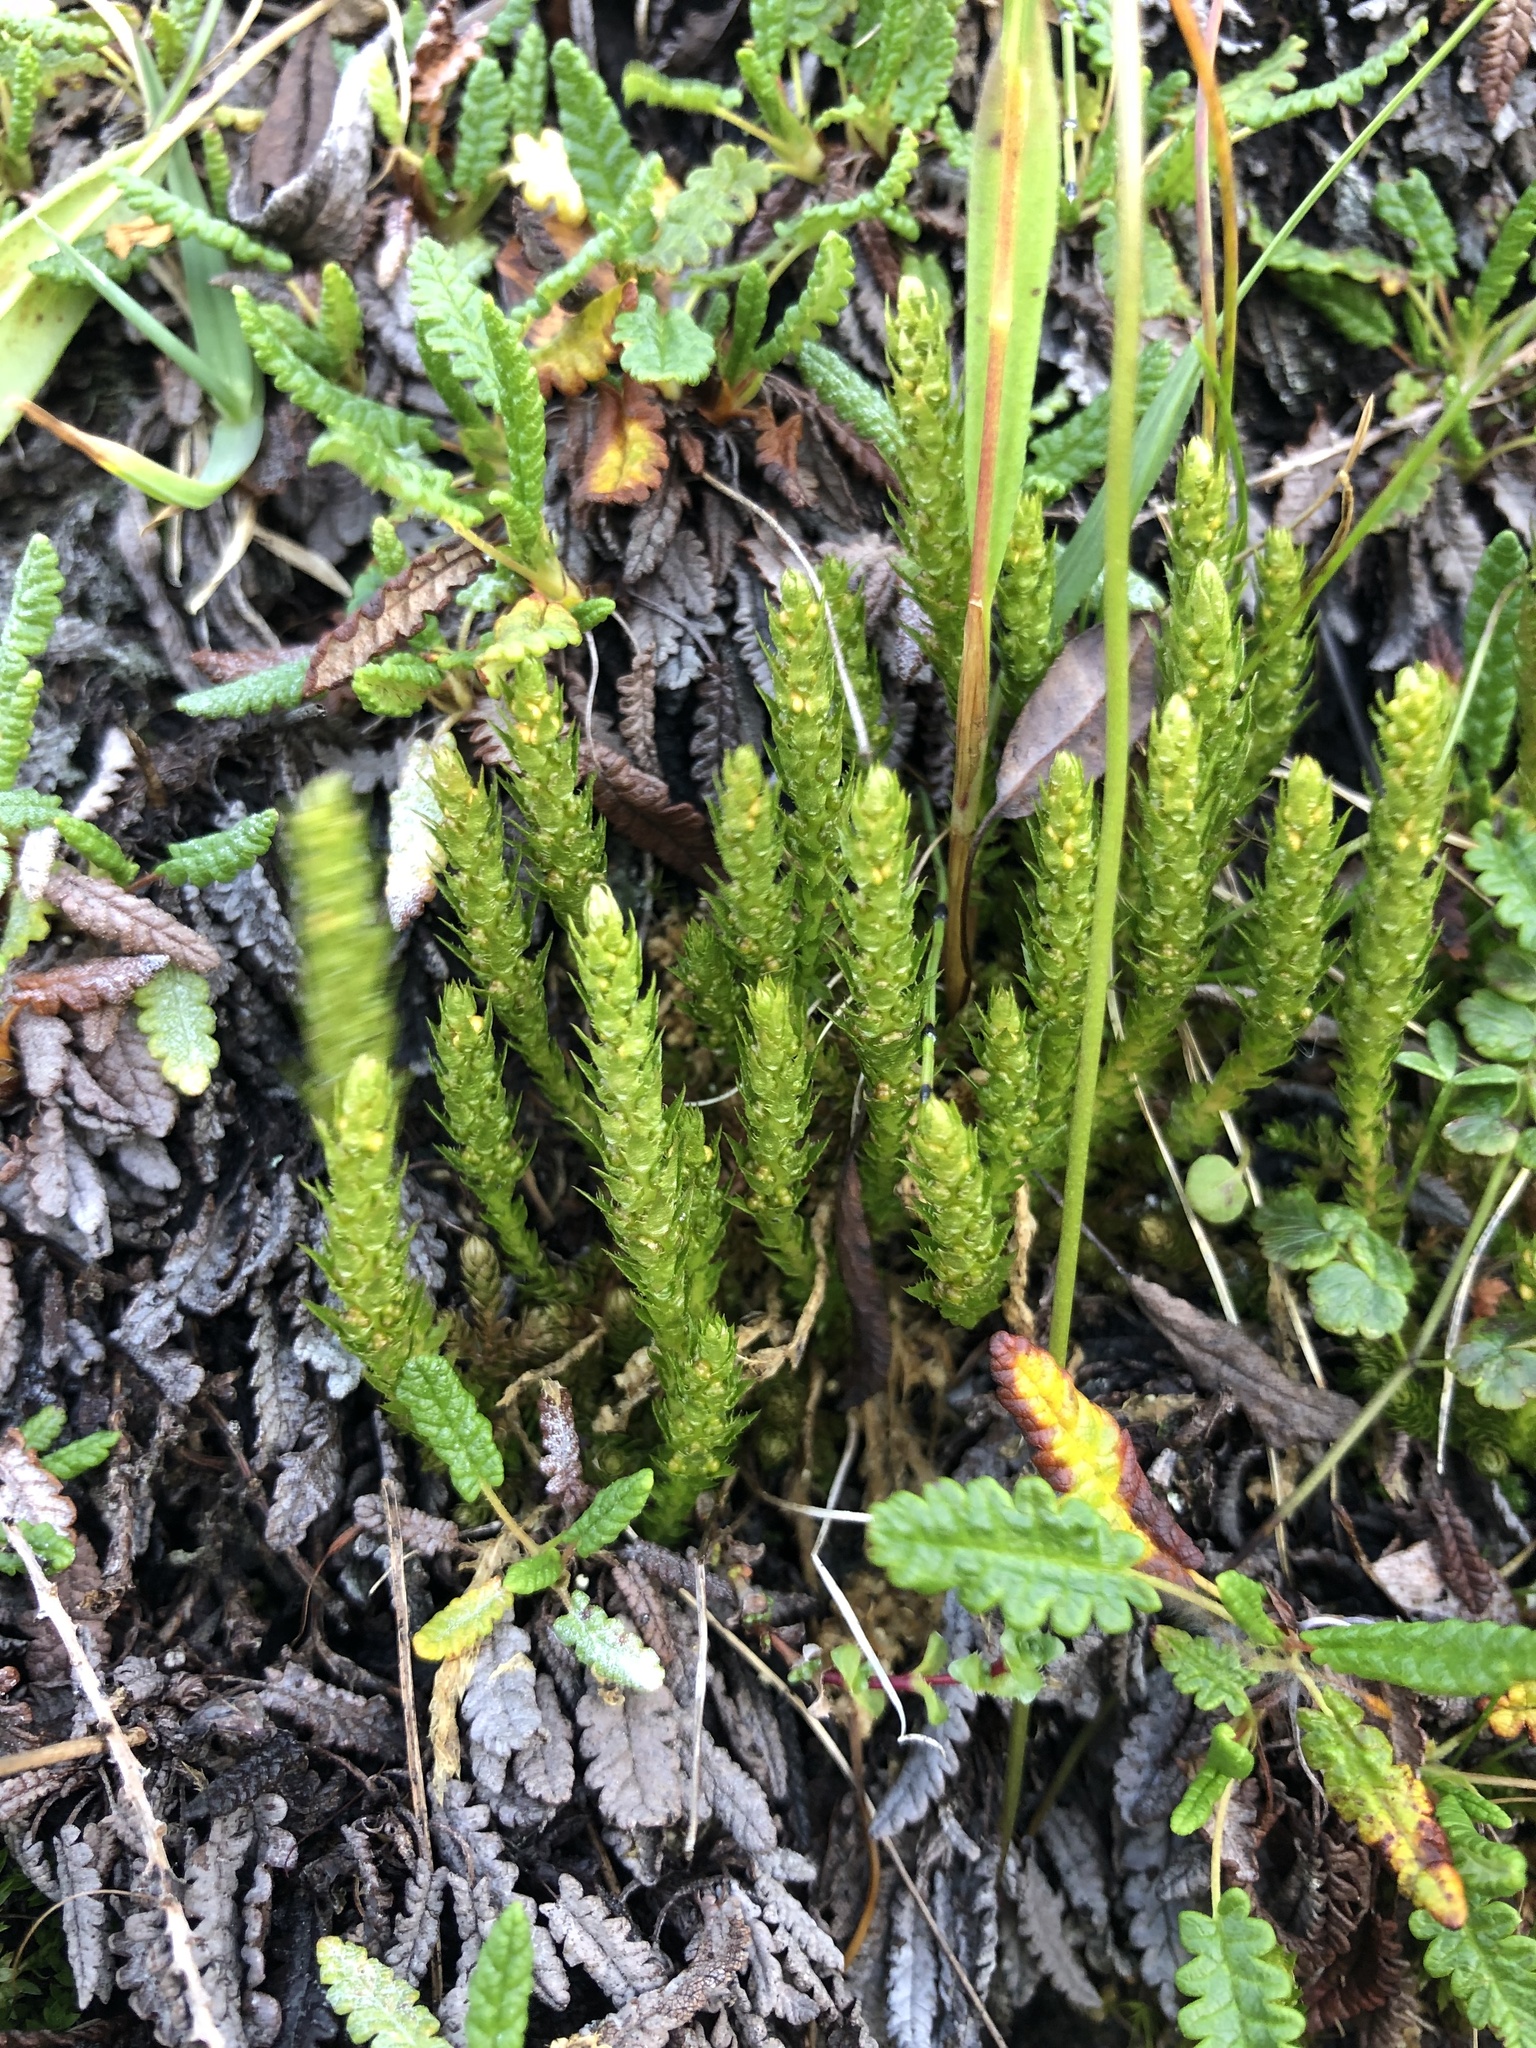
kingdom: Plantae
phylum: Tracheophyta
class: Lycopodiopsida
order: Selaginellales
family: Selaginellaceae
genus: Selaginella
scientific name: Selaginella selaginoides
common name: Prickly mountain-moss
